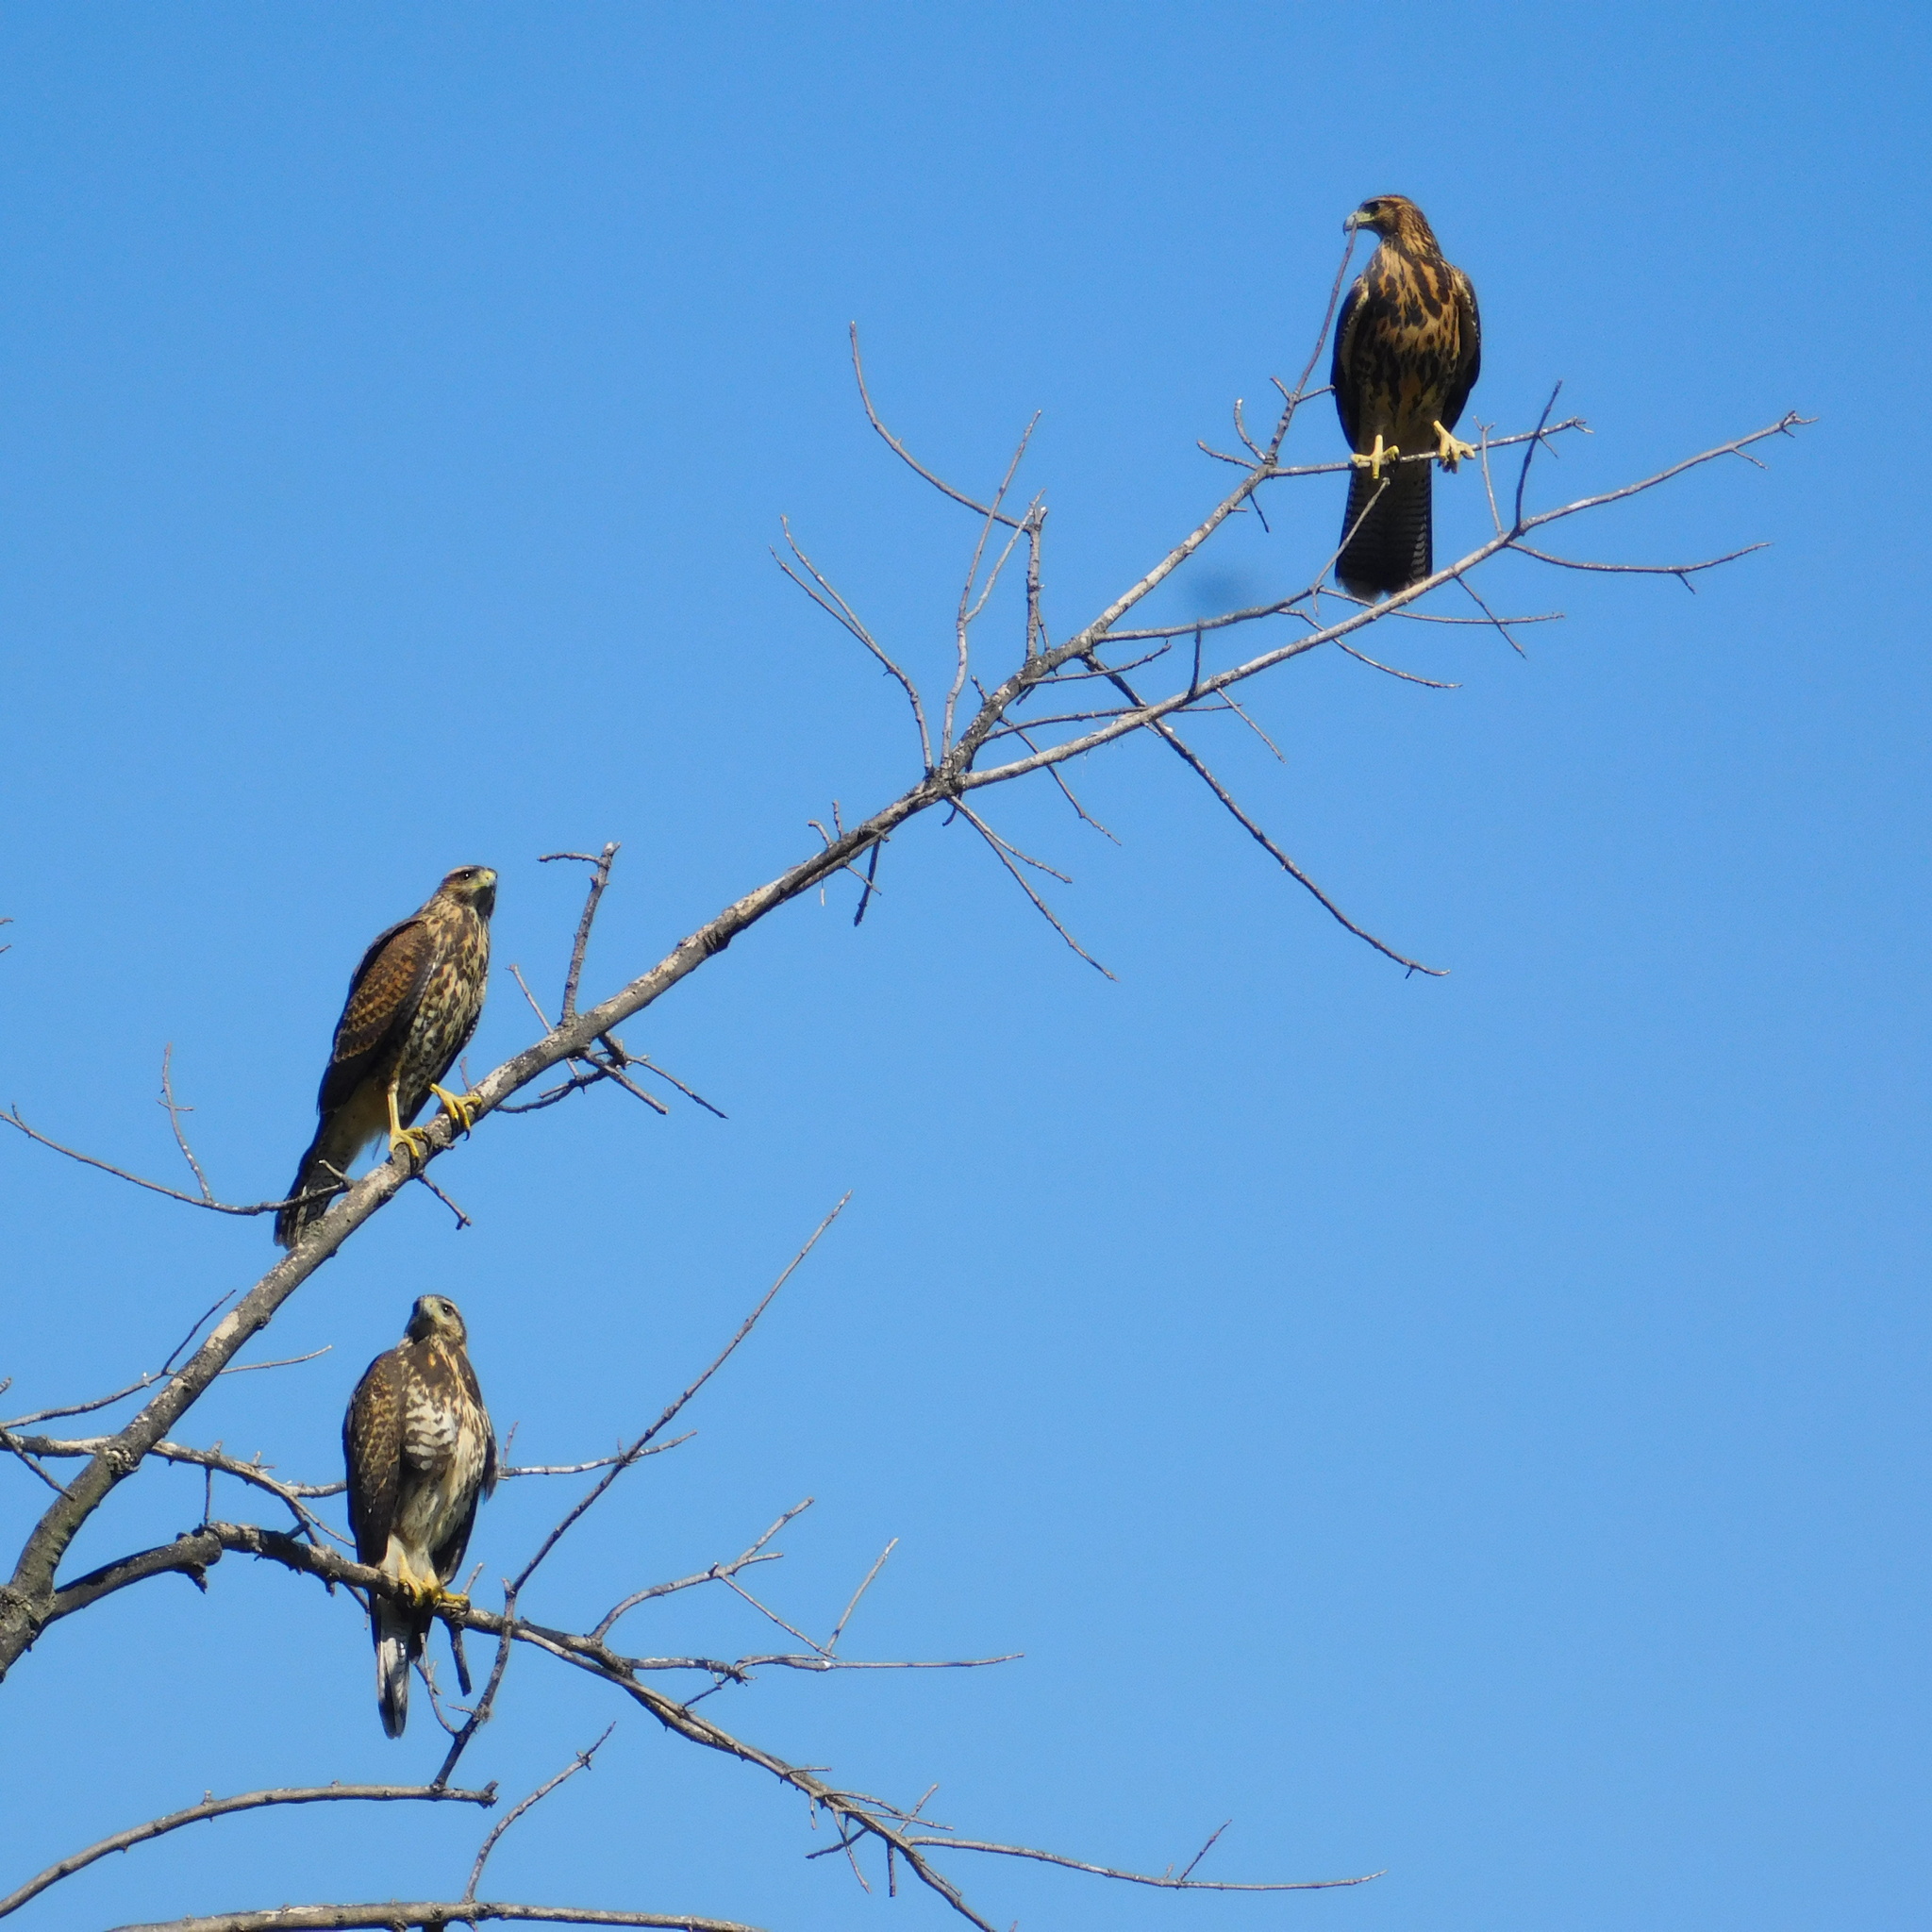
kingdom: Animalia
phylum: Chordata
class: Aves
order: Accipitriformes
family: Accipitridae
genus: Parabuteo
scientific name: Parabuteo unicinctus
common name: Harris's hawk
